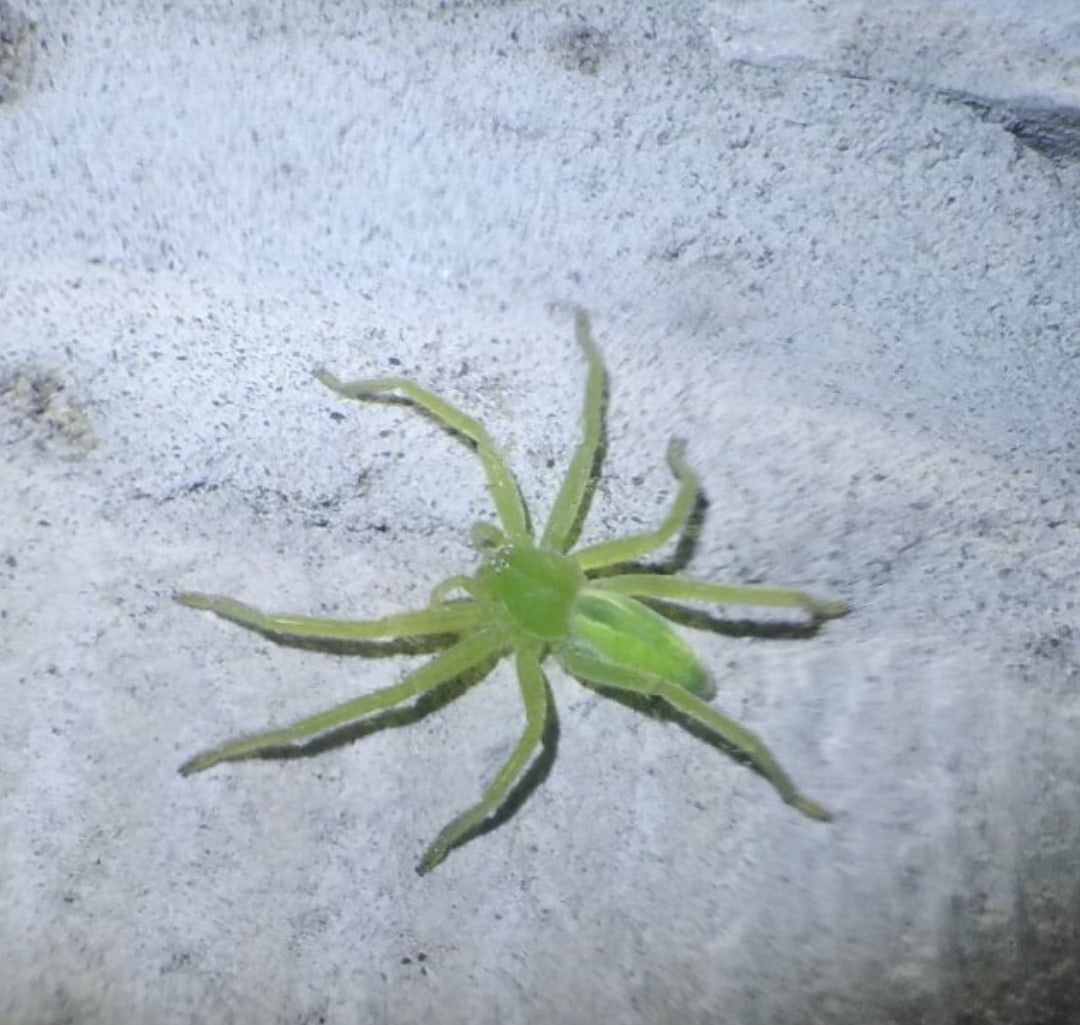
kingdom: Animalia
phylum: Arthropoda
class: Arachnida
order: Araneae
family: Sparassidae
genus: Micrommata
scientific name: Micrommata virescens
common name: Green spider
